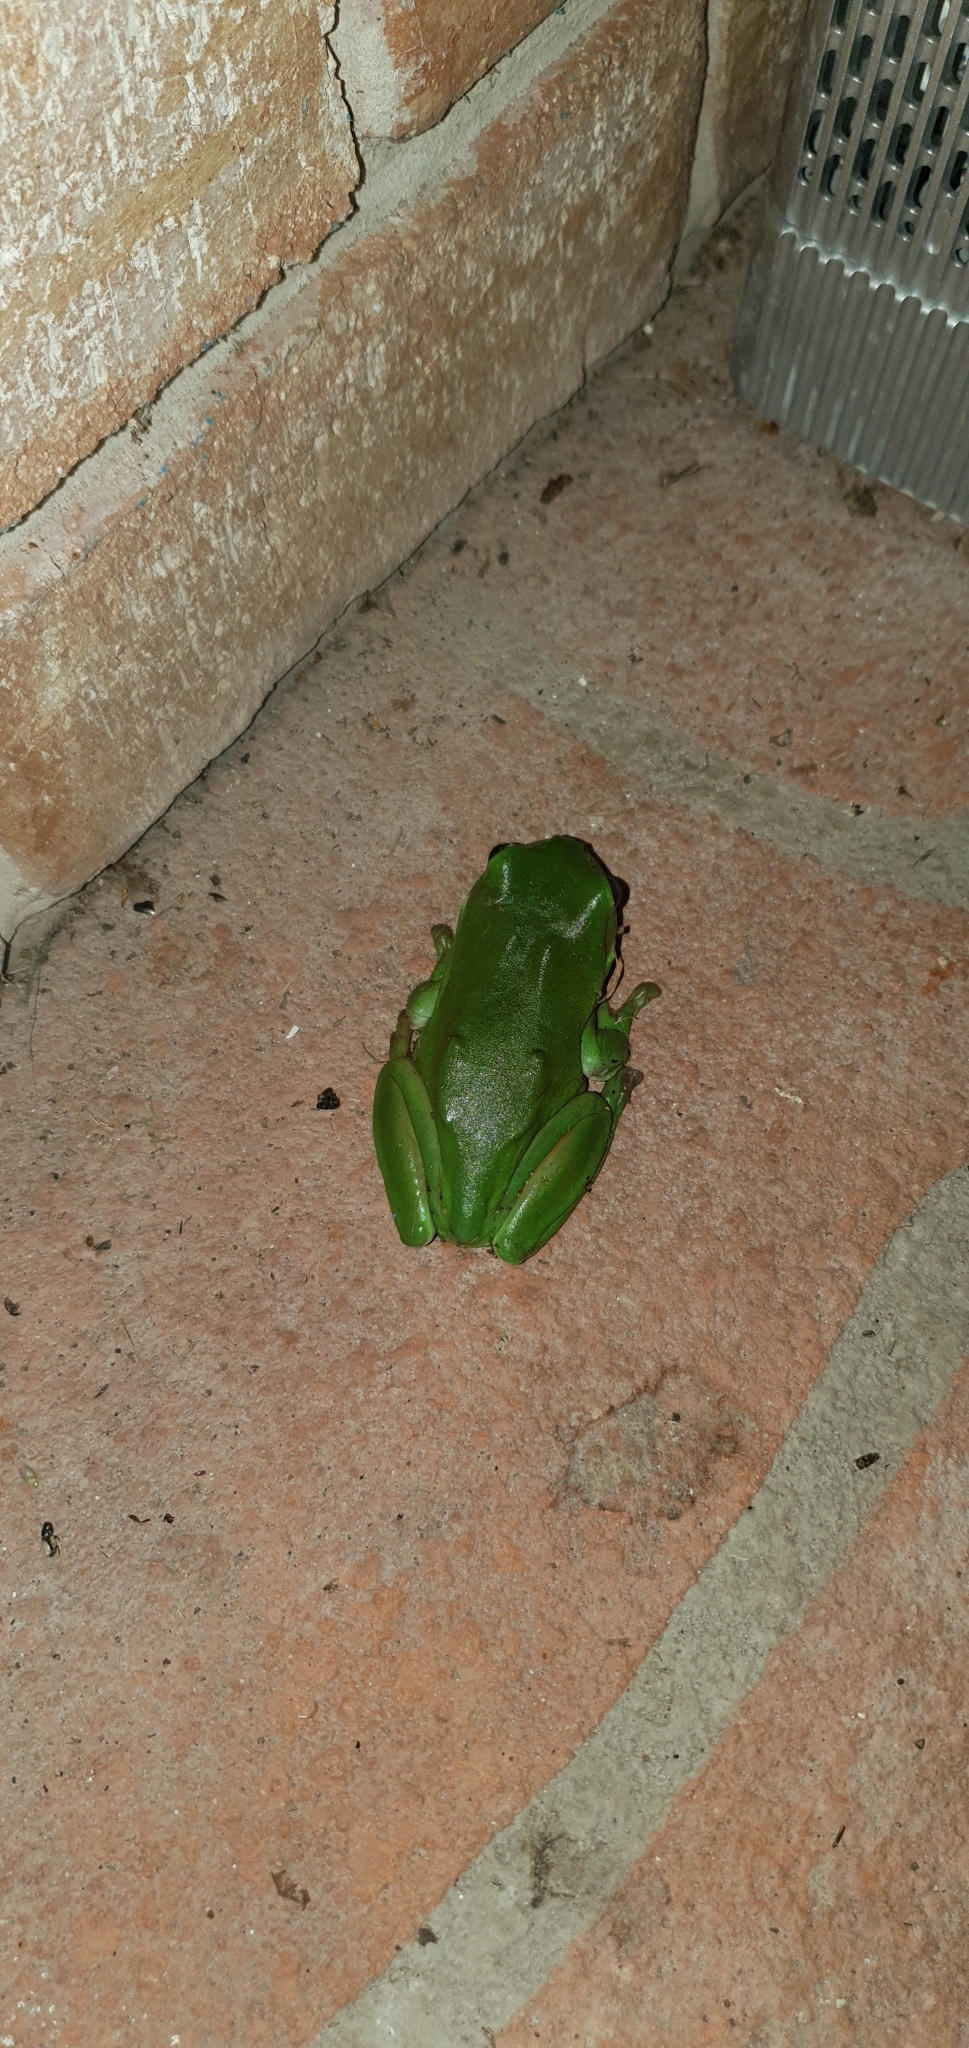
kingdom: Animalia
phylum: Chordata
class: Amphibia
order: Anura
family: Pelodryadidae
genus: Ranoidea
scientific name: Ranoidea caerulea
